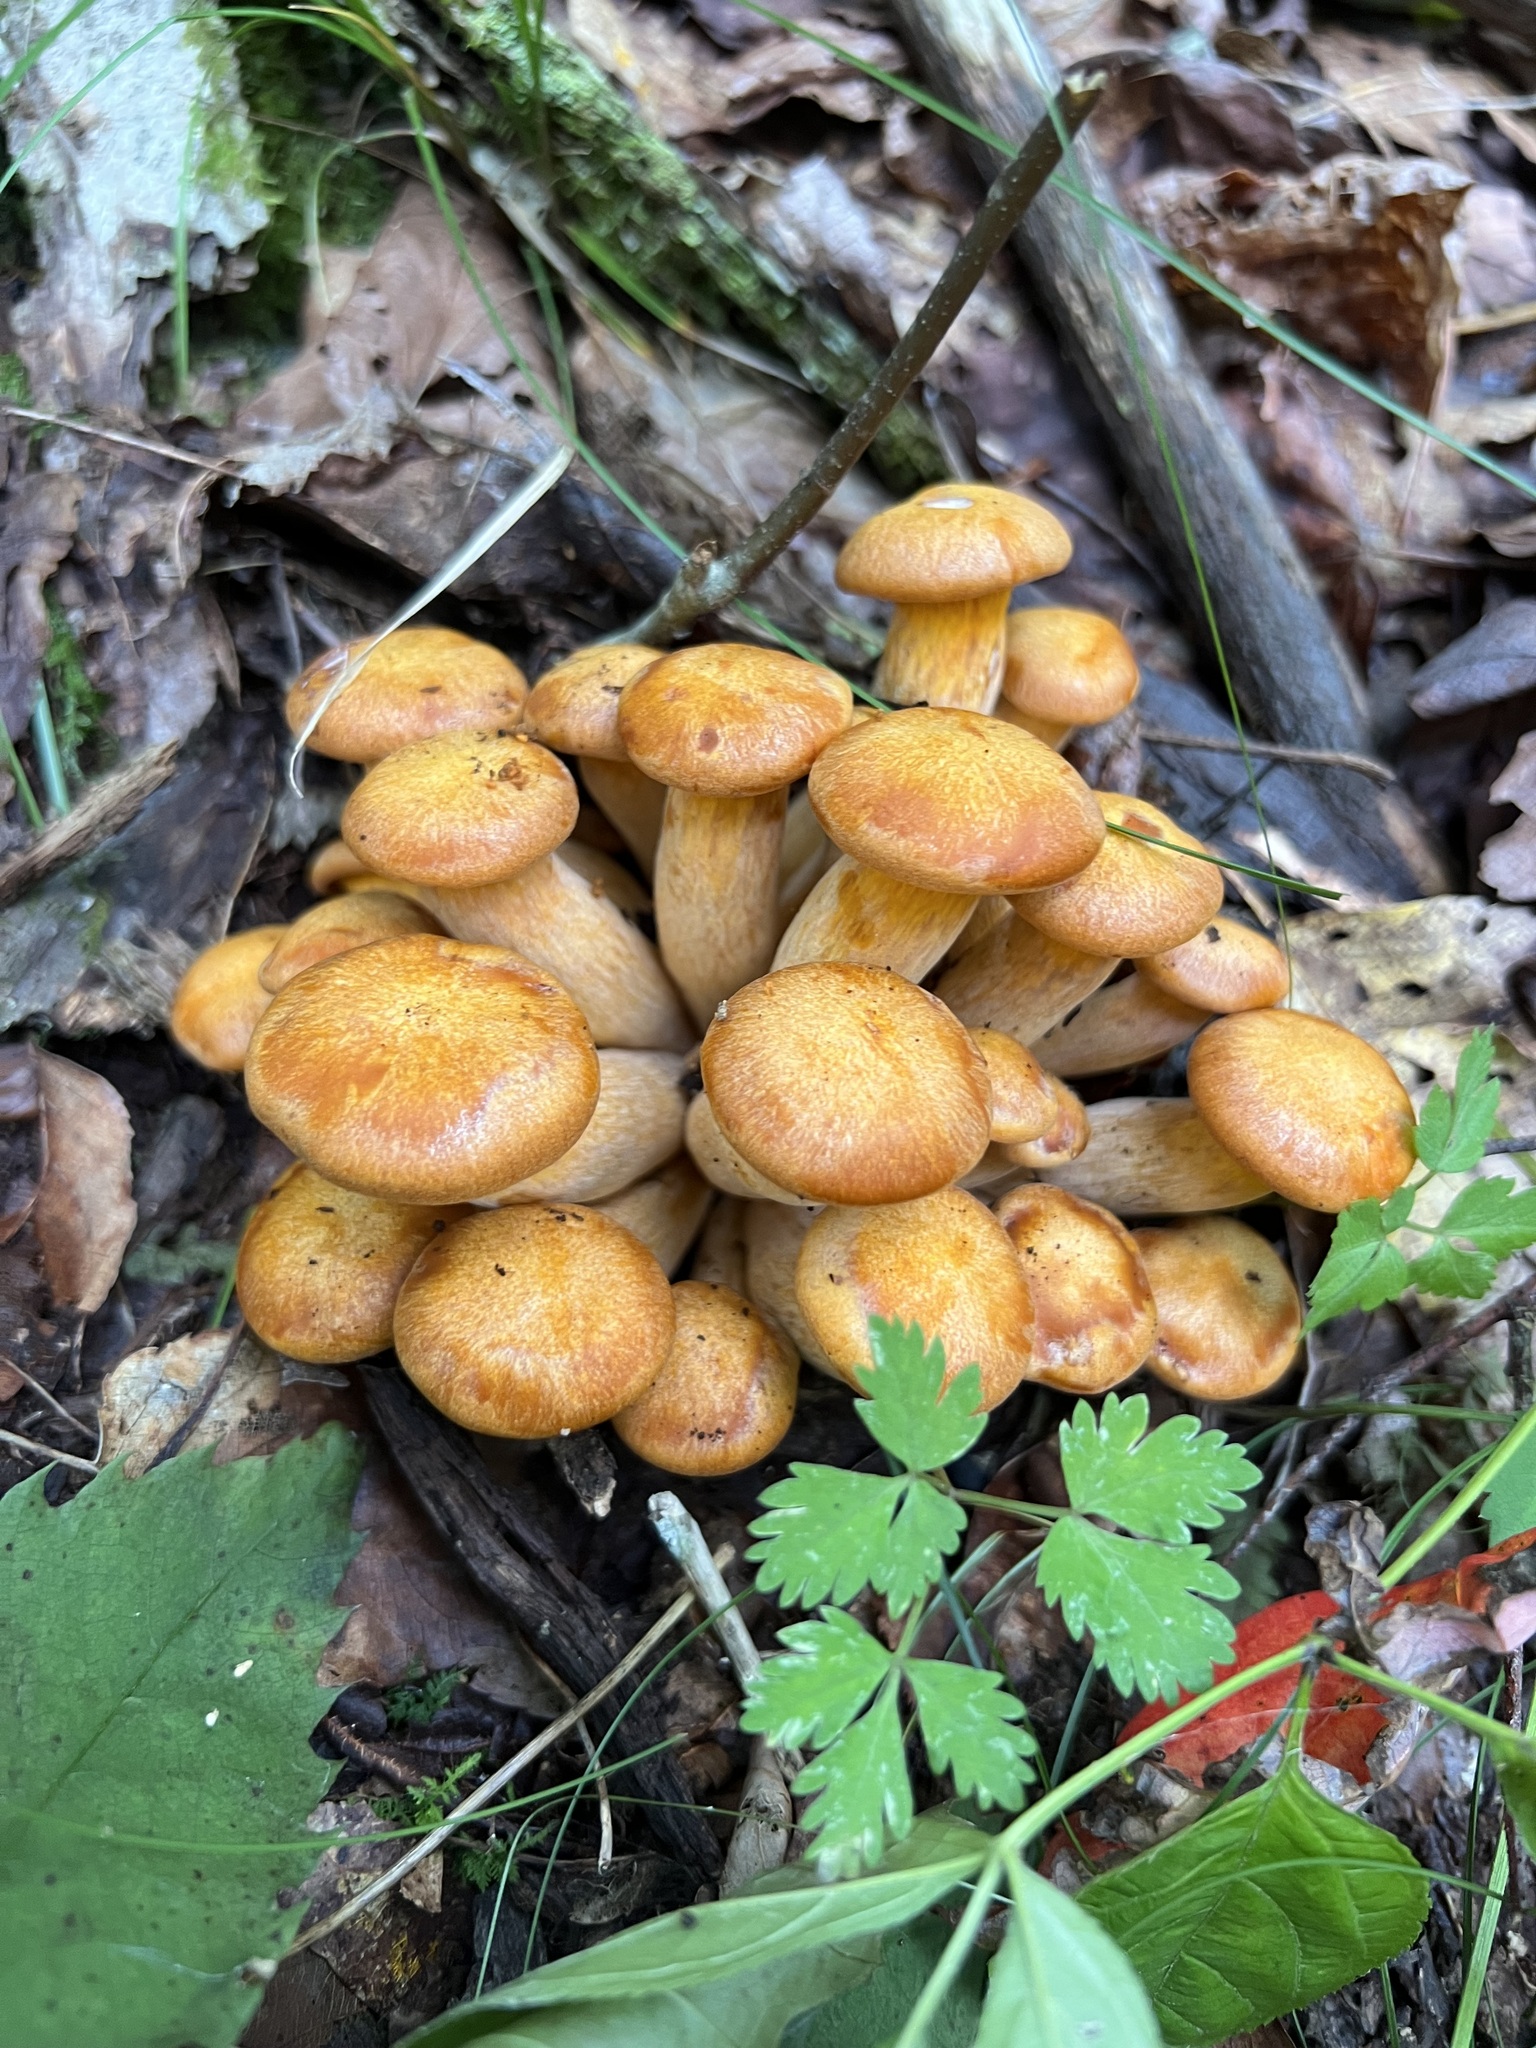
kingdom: Fungi
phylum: Basidiomycota
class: Agaricomycetes
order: Agaricales
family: Omphalotaceae
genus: Omphalotus
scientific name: Omphalotus illudens
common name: Jack o lantern
